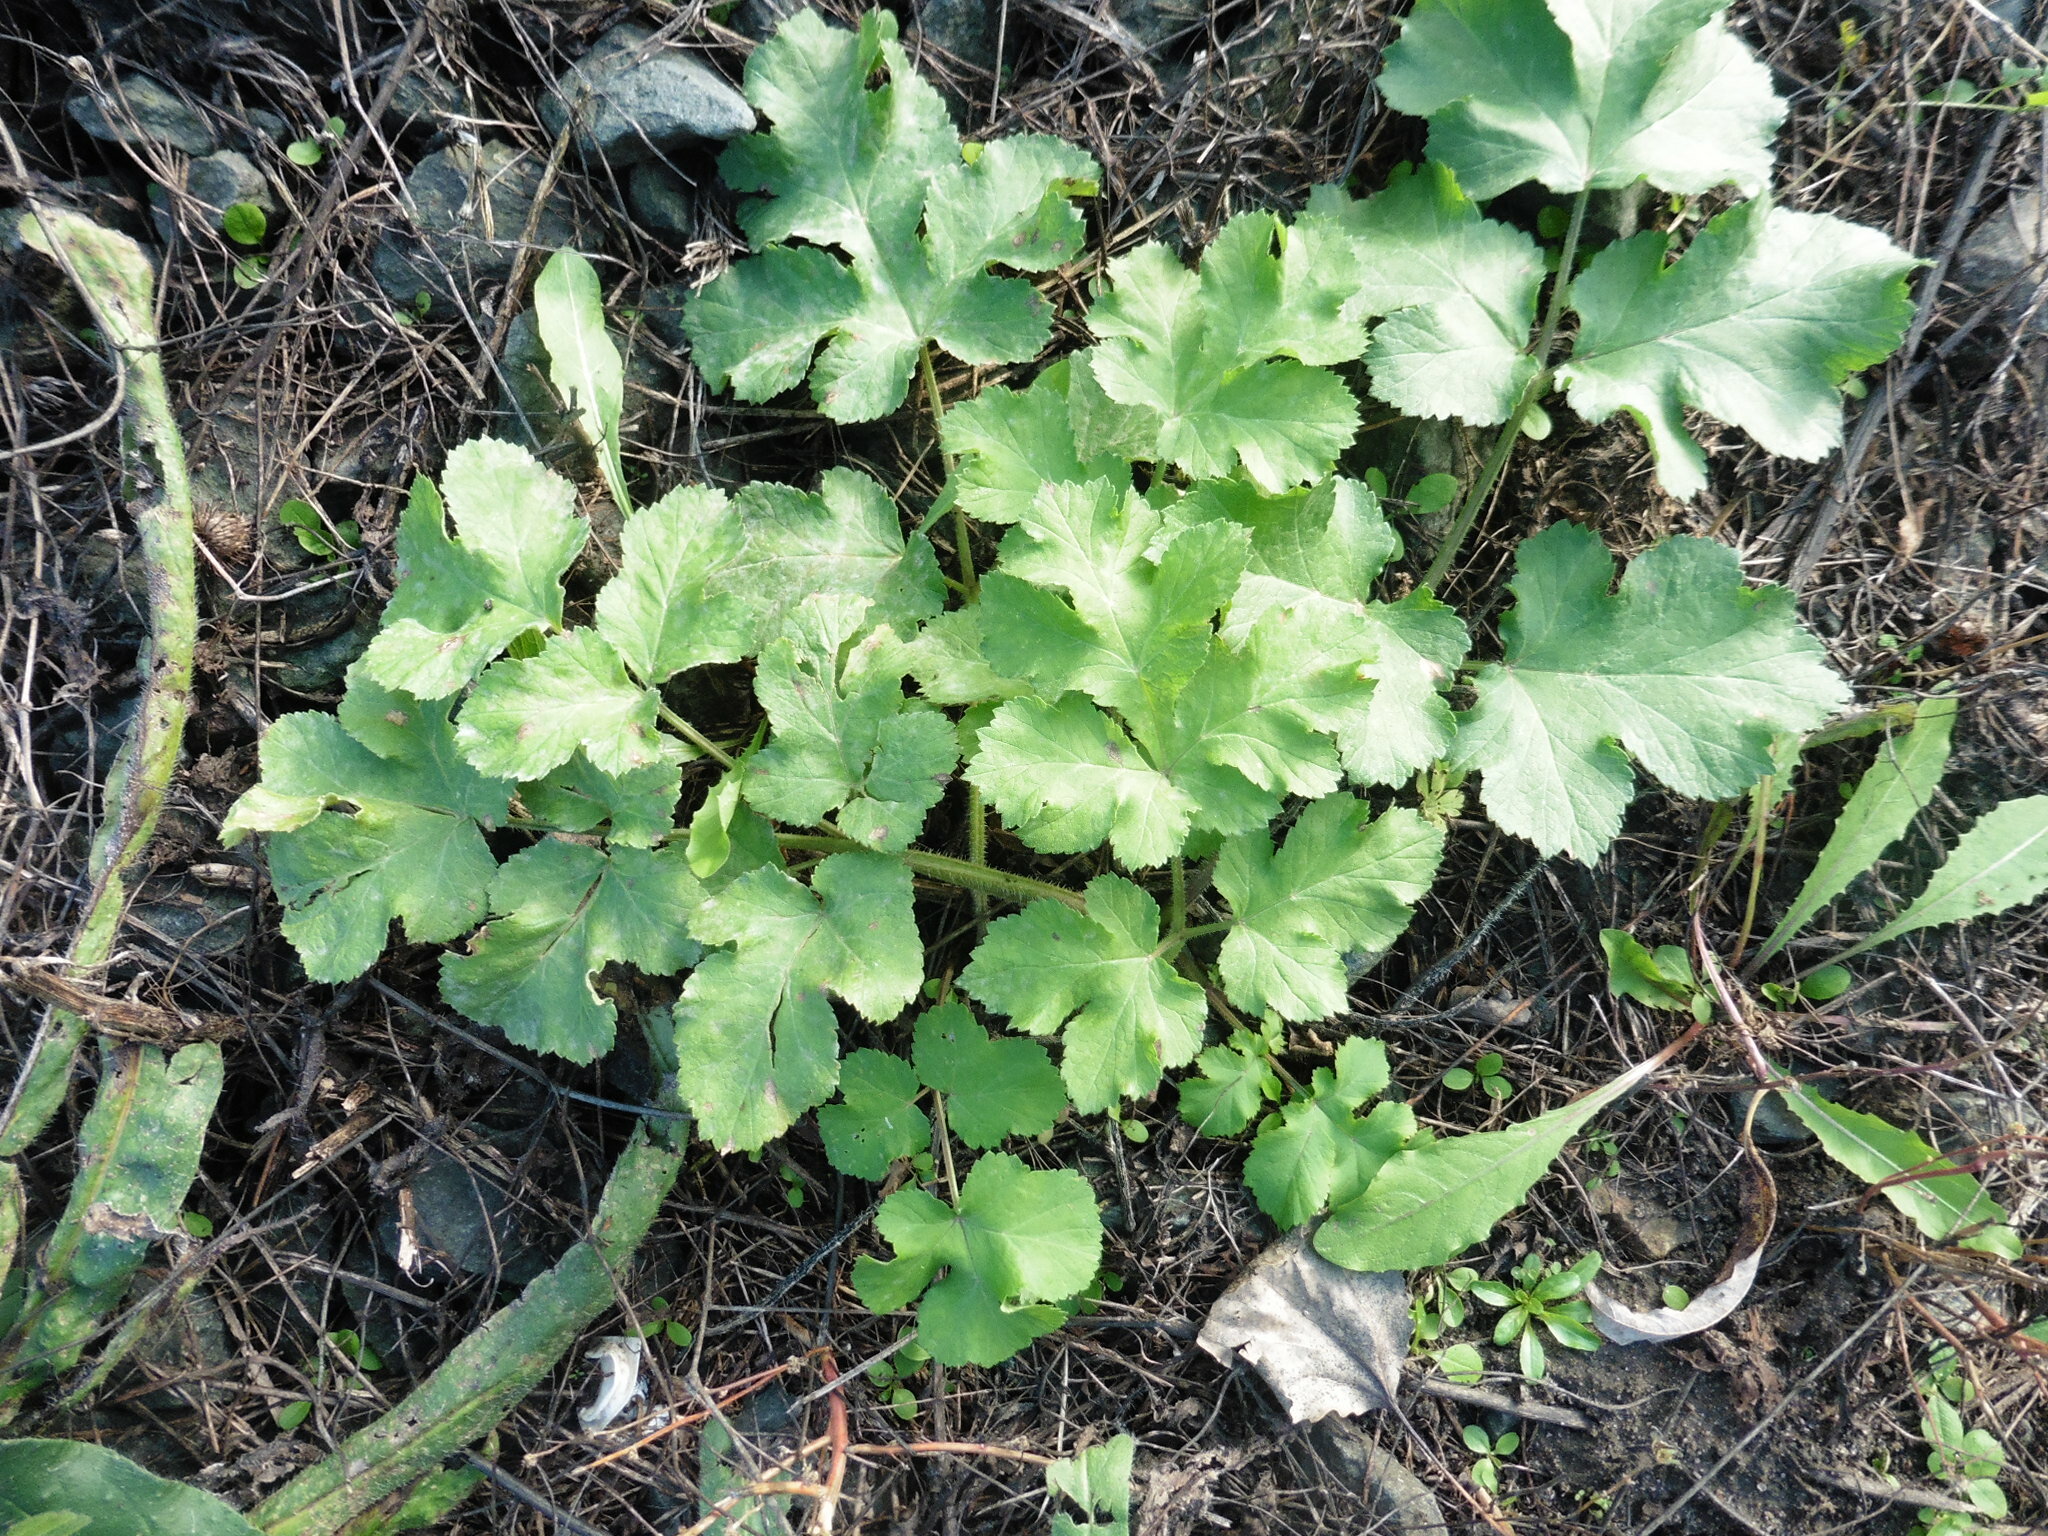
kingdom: Plantae
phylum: Tracheophyta
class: Magnoliopsida
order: Apiales
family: Apiaceae
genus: Heracleum
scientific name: Heracleum sphondylium
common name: Hogweed
